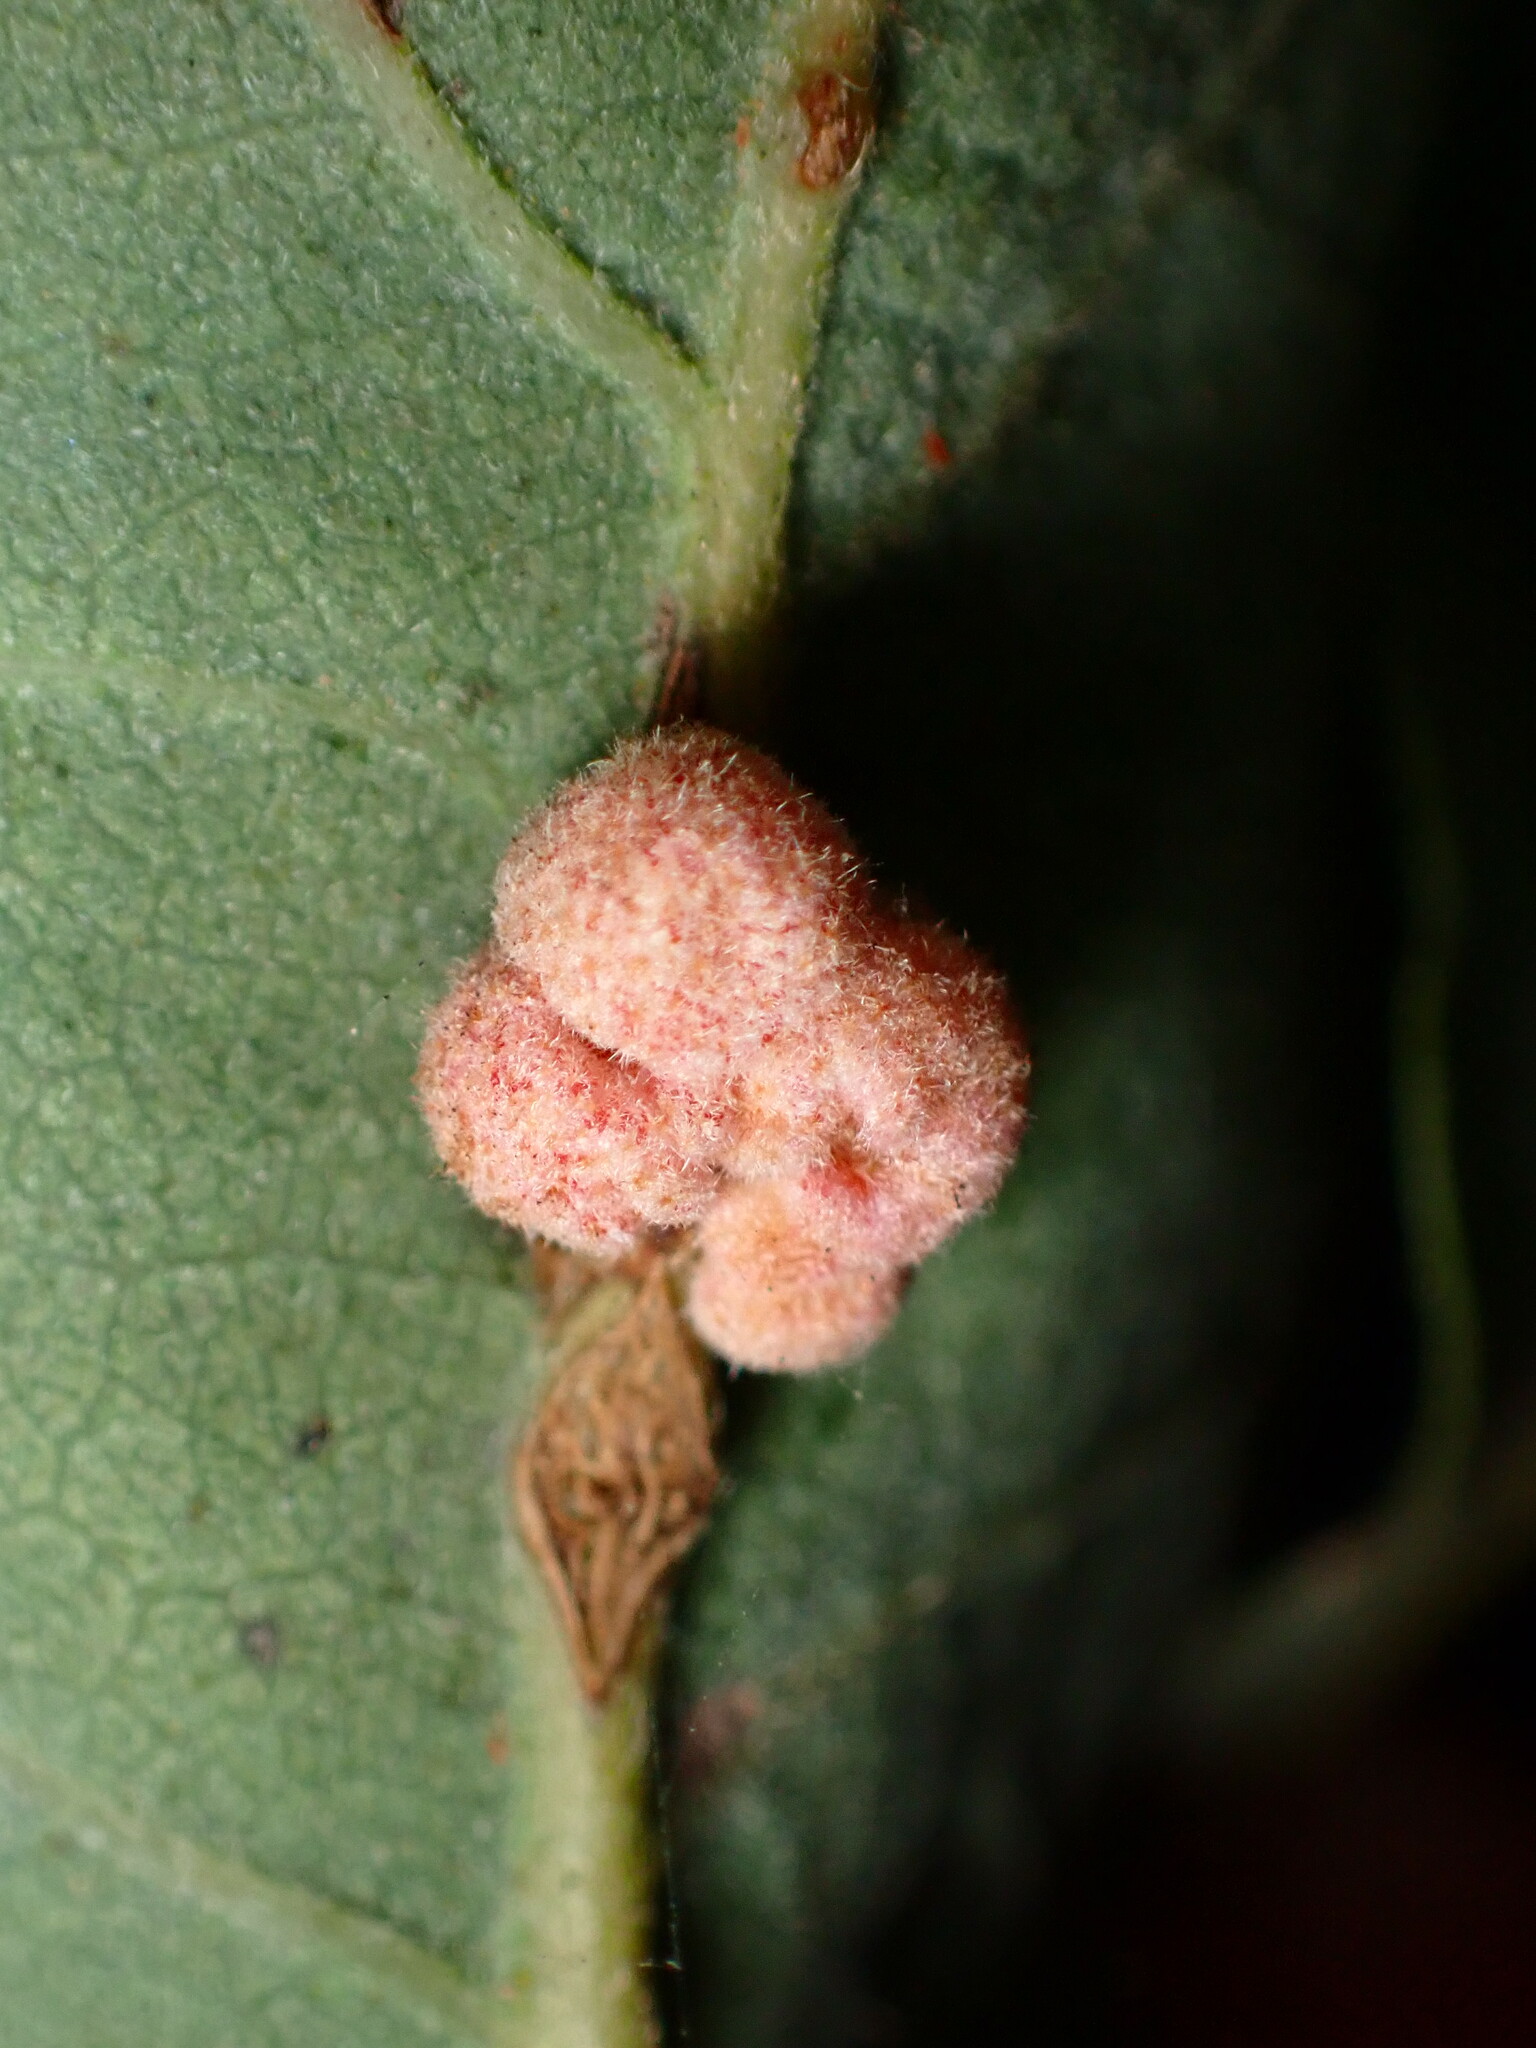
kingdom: Animalia
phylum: Arthropoda
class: Insecta
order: Hymenoptera
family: Cynipidae
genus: Andricus
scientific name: Andricus
